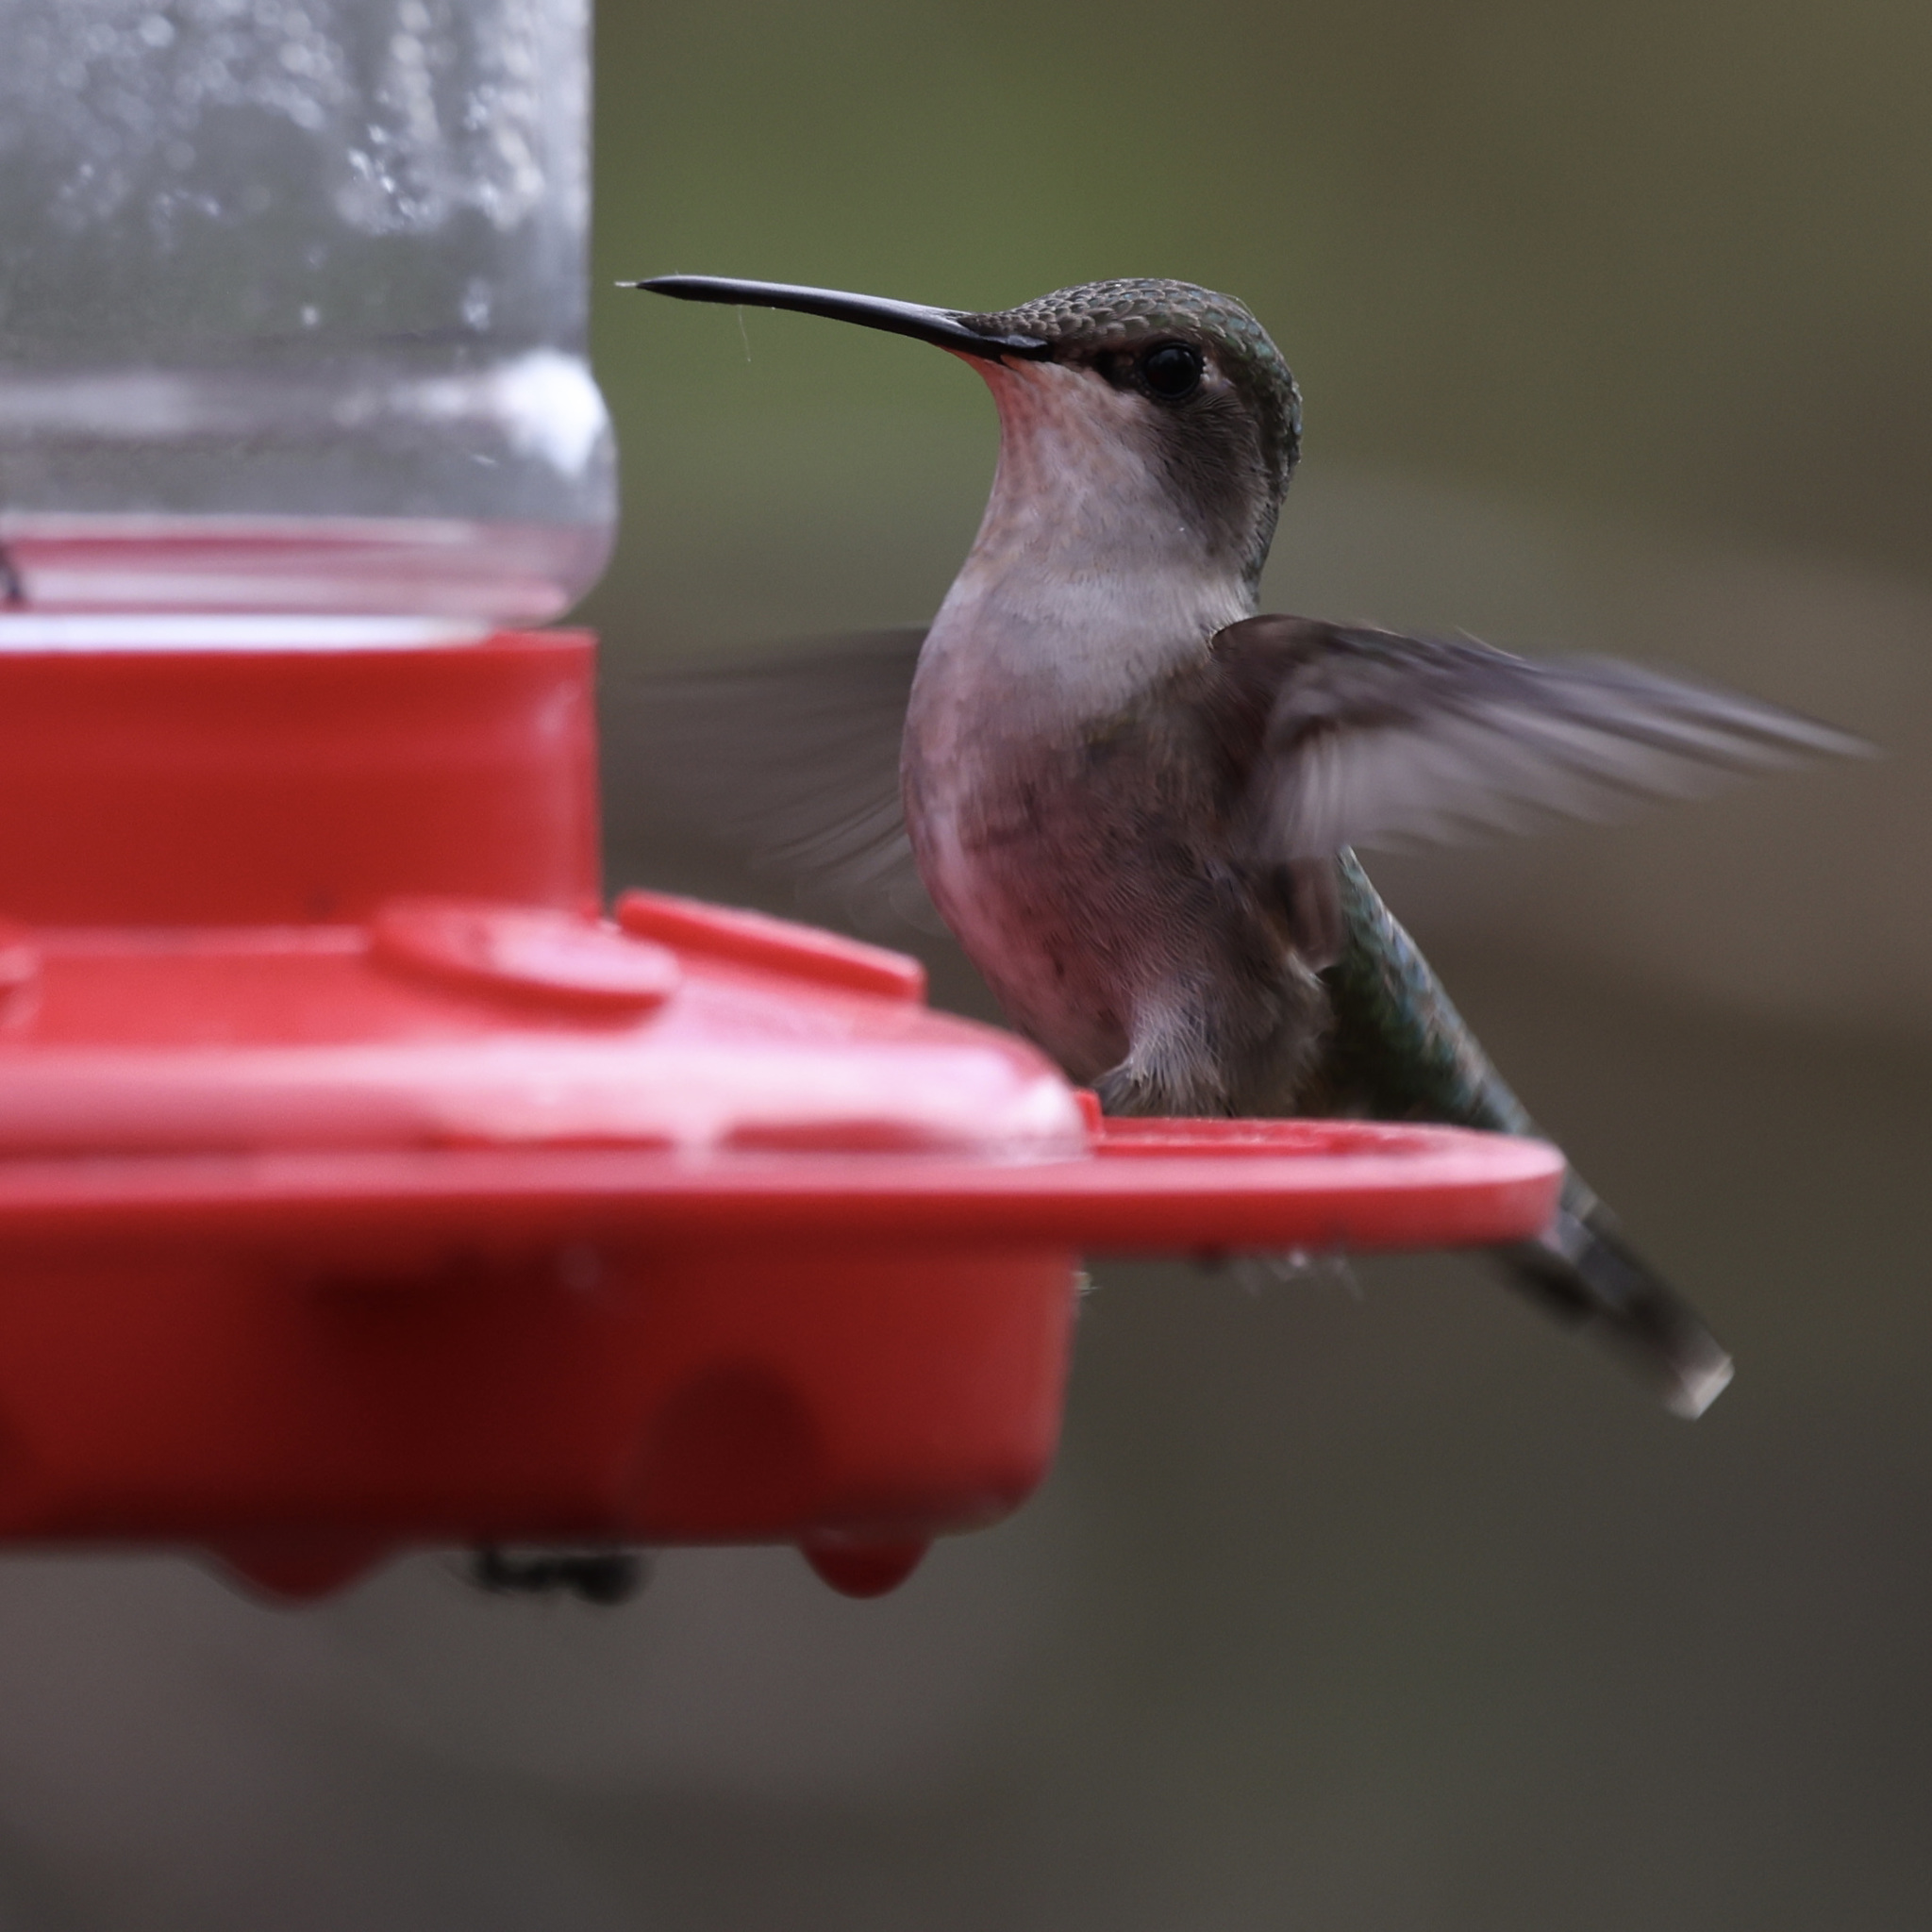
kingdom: Animalia
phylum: Chordata
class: Aves
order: Apodiformes
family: Trochilidae
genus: Archilochus
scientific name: Archilochus colubris
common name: Ruby-throated hummingbird
